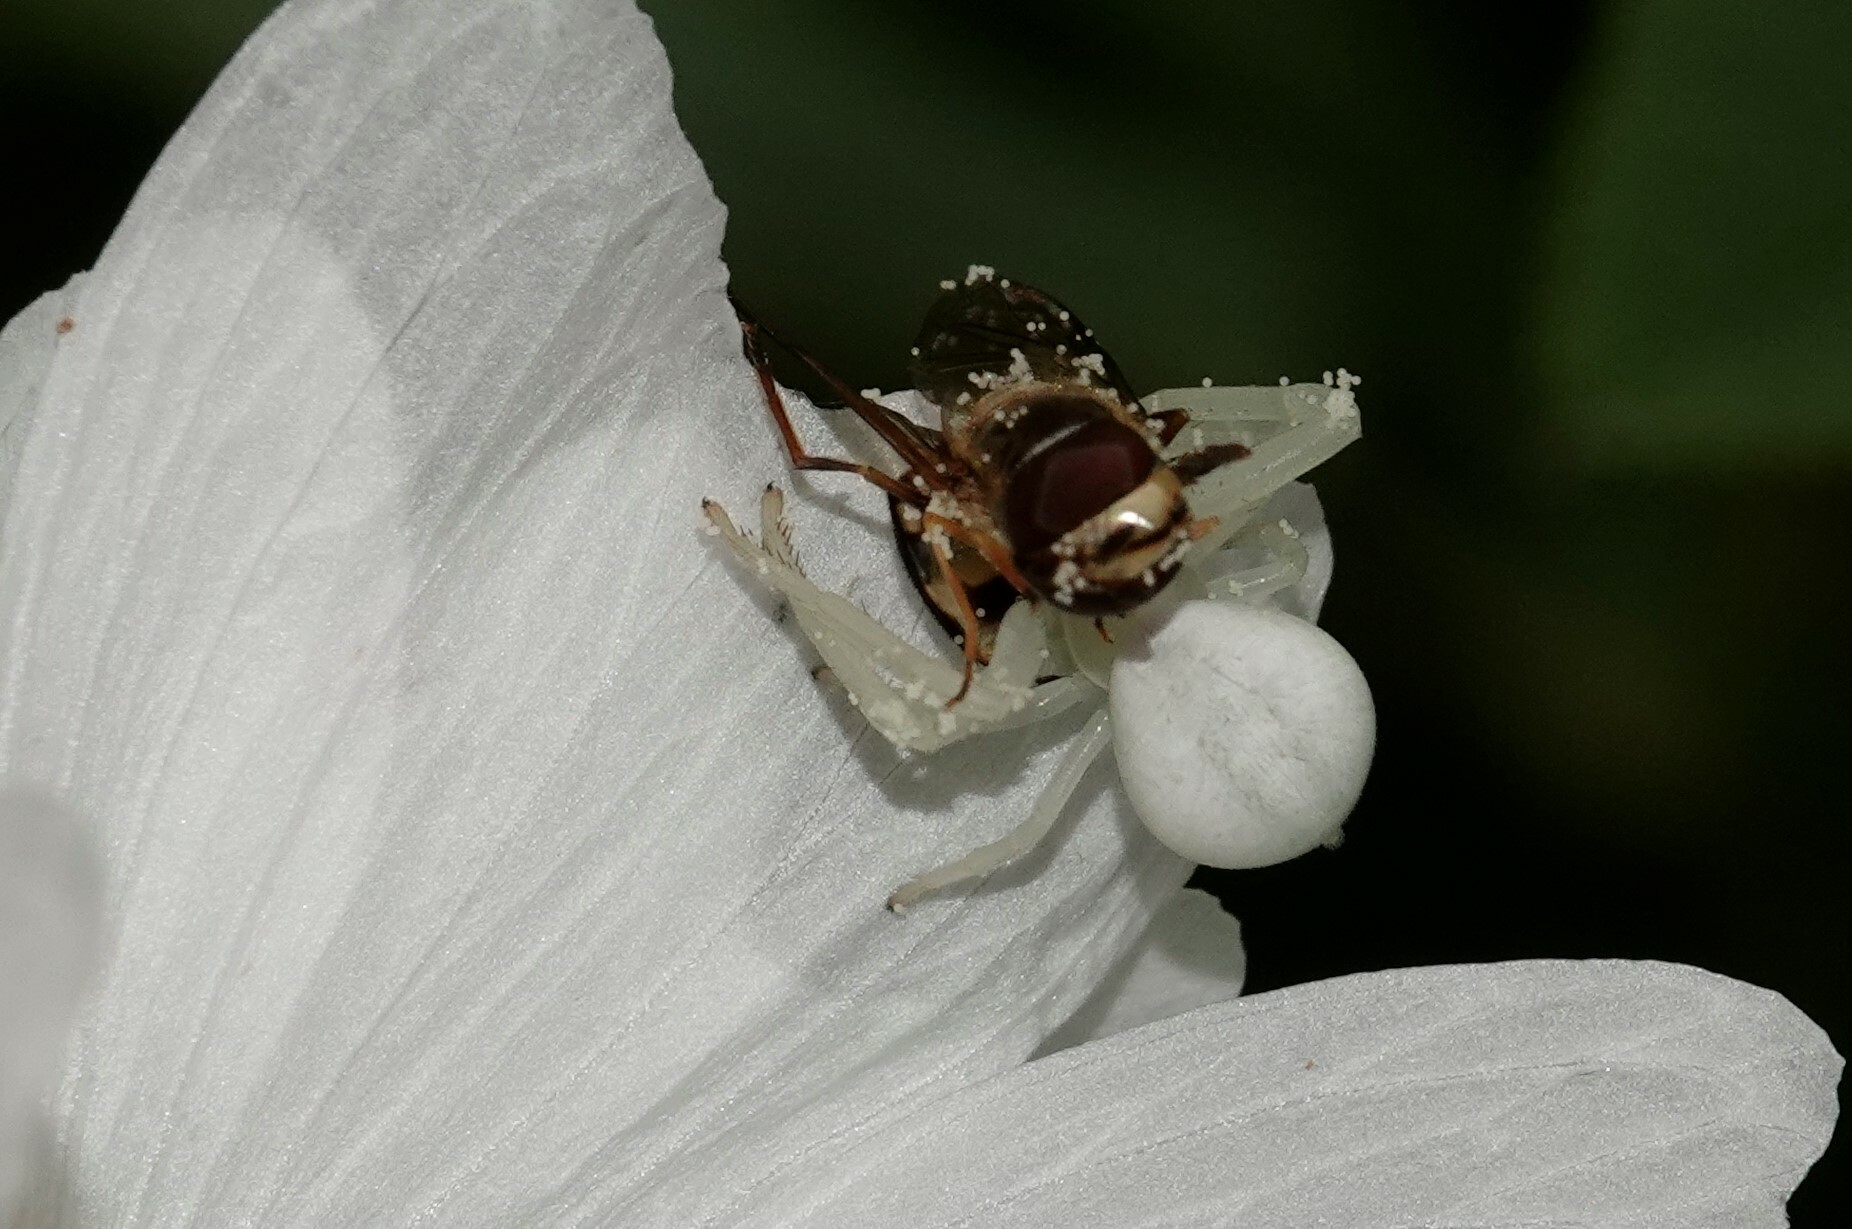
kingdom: Animalia
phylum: Arthropoda
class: Arachnida
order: Araneae
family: Thomisidae
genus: Misumena
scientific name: Misumena vatia
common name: Goldenrod crab spider
